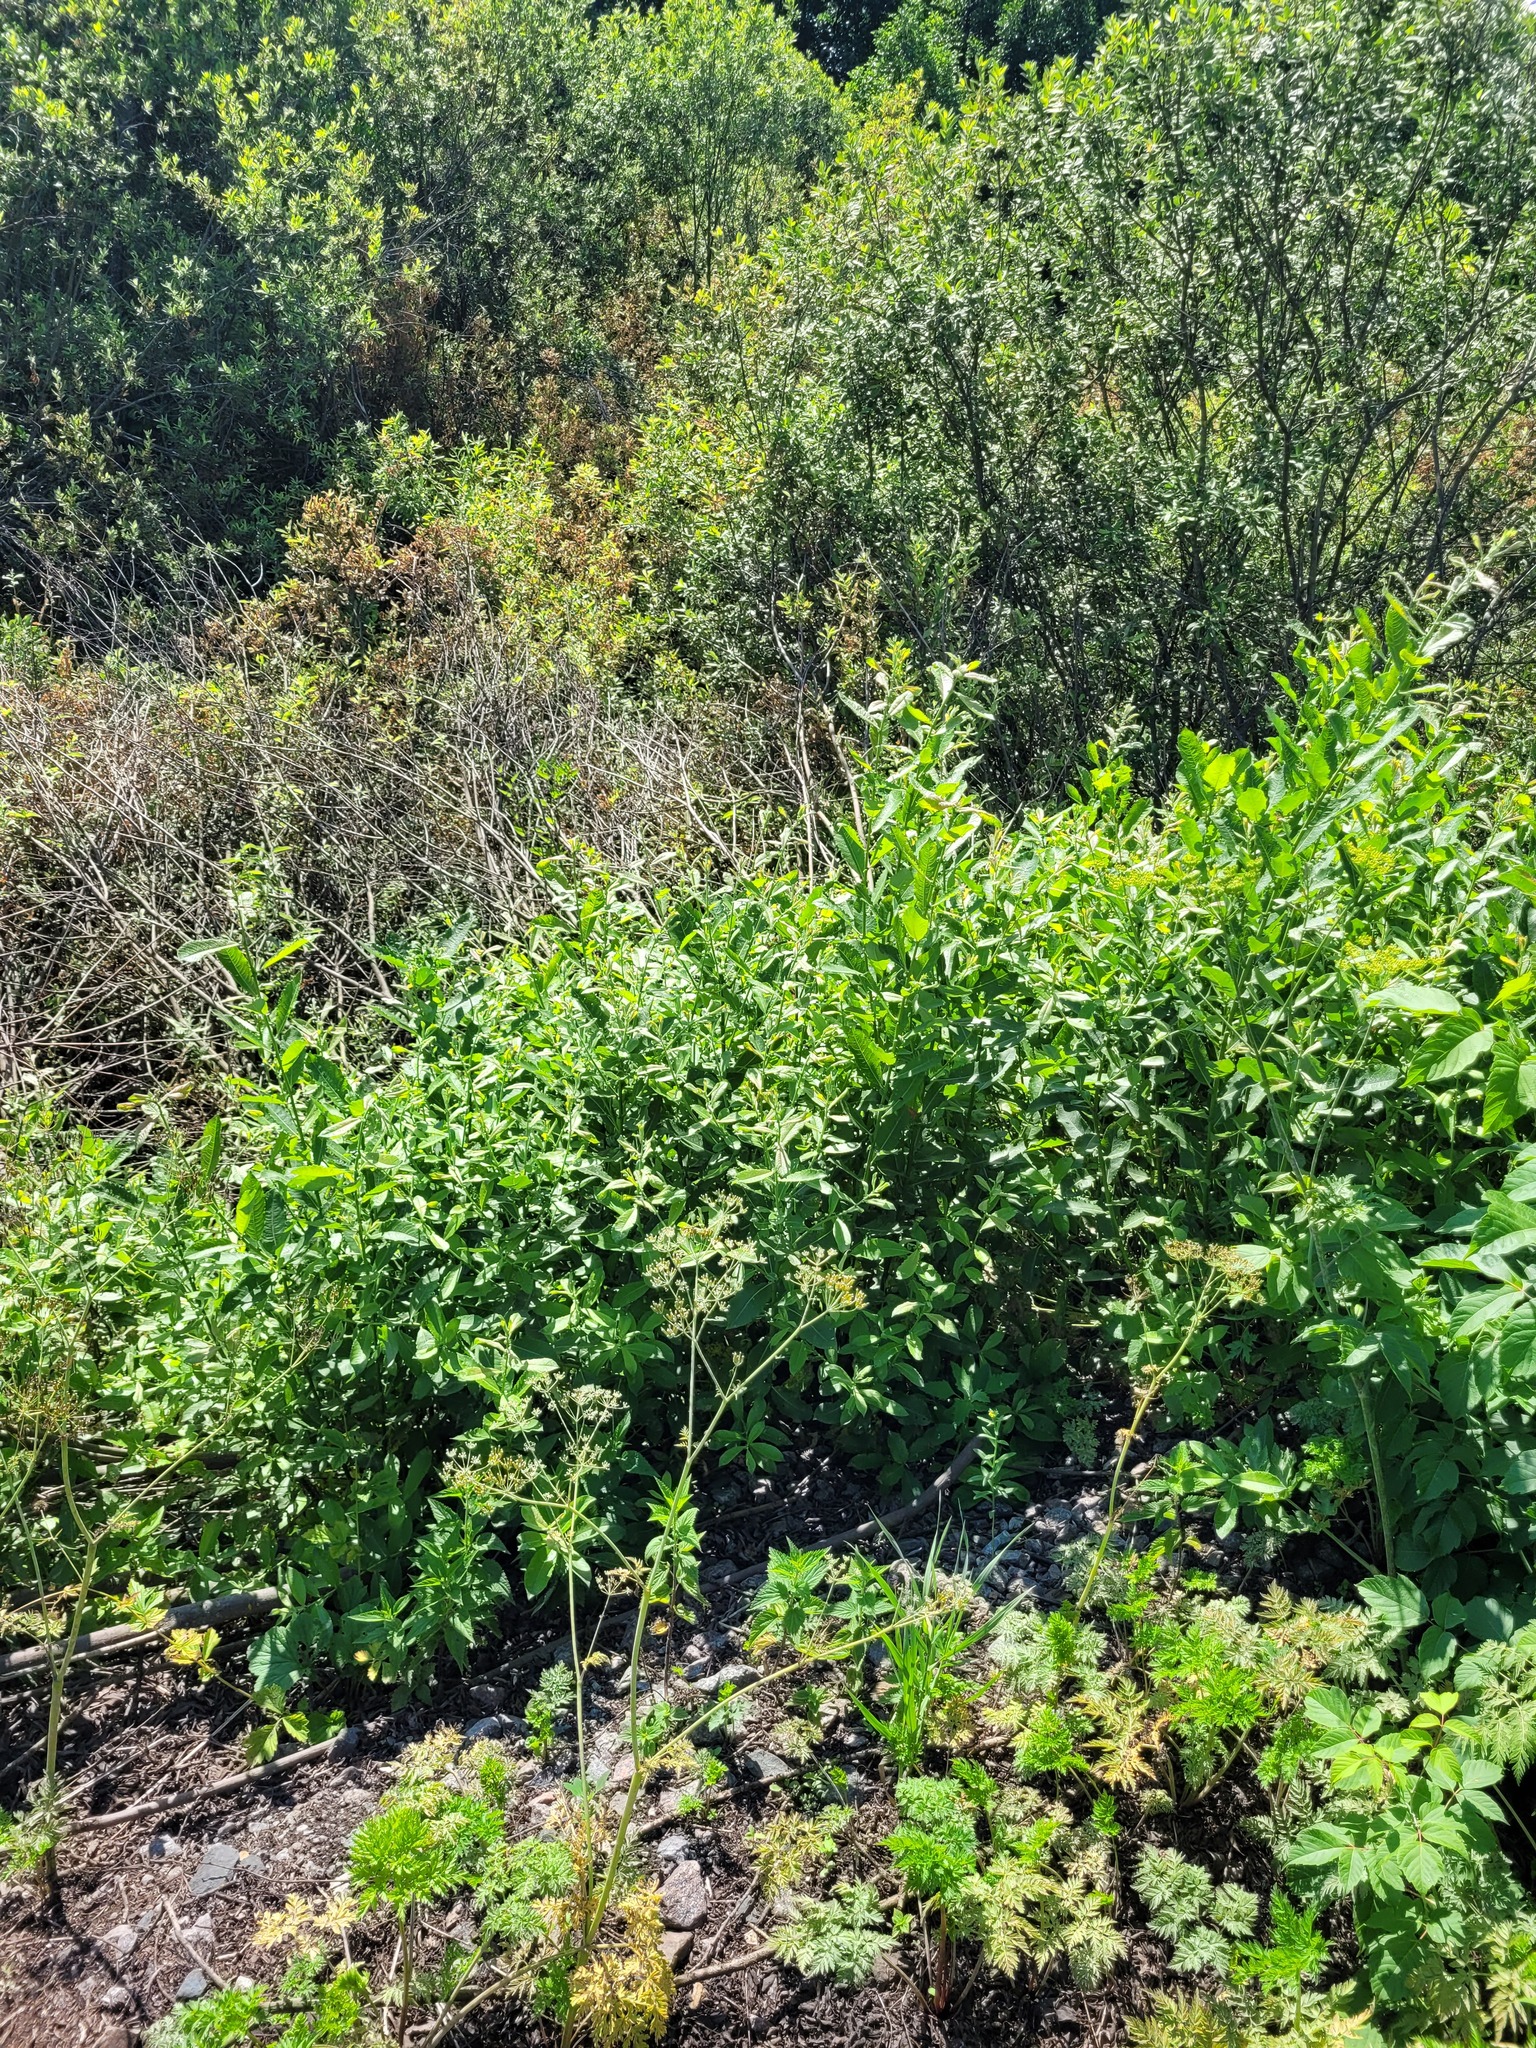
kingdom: Plantae
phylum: Tracheophyta
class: Magnoliopsida
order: Malpighiales
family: Salicaceae
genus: Salix
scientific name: Salix cinerea
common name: Common sallow
